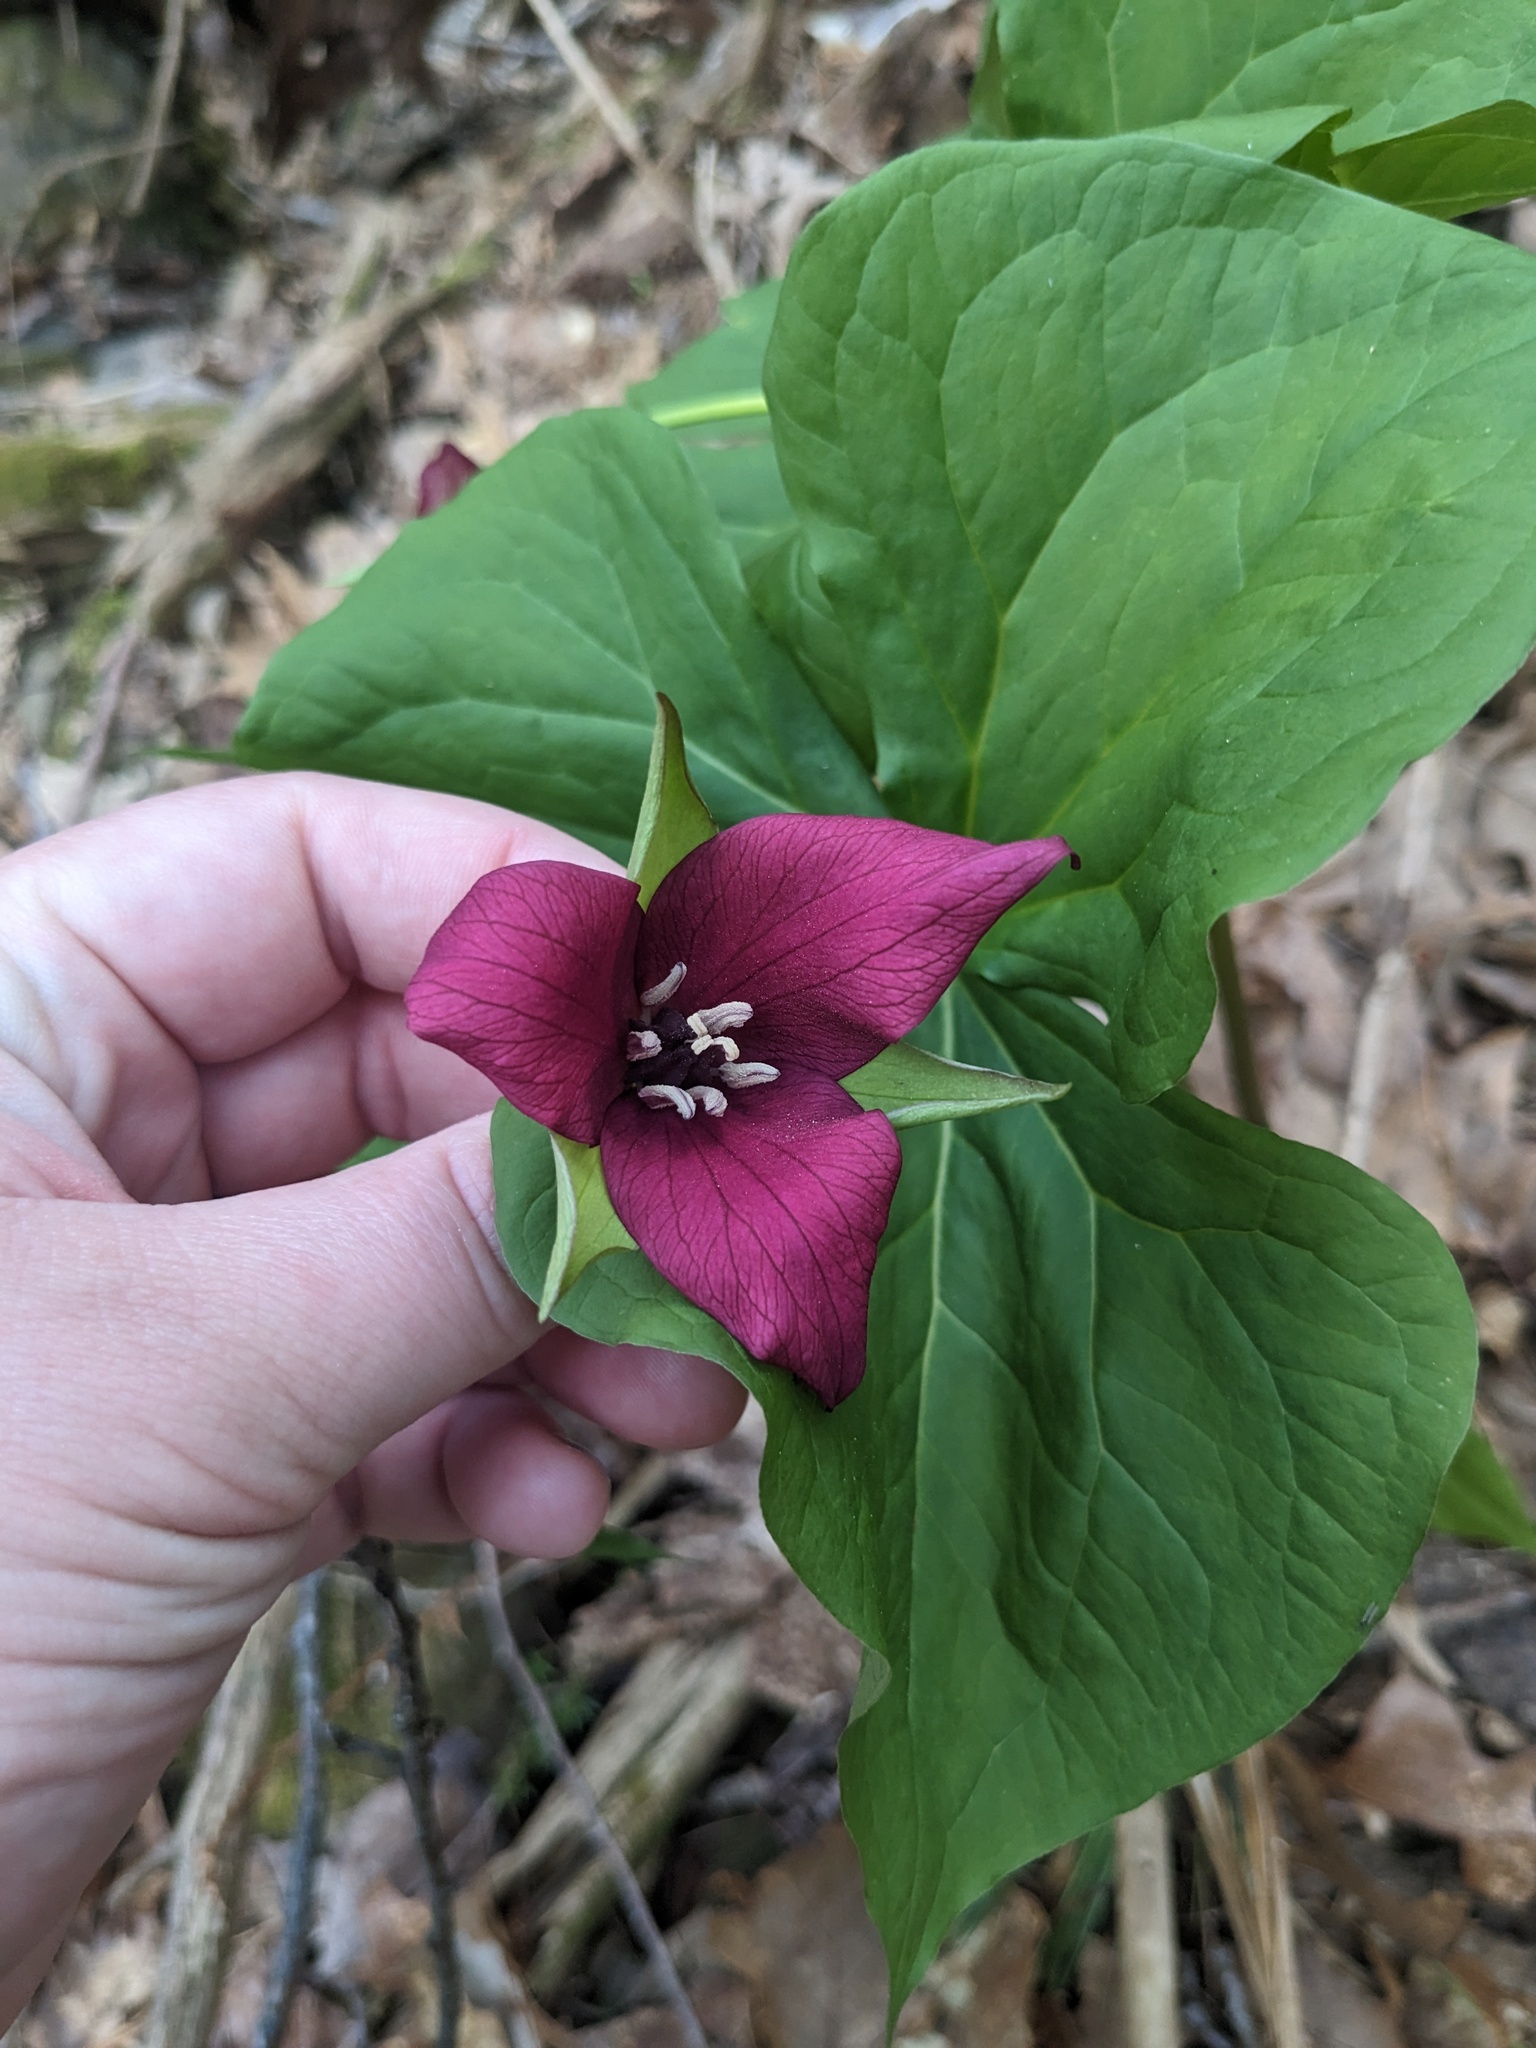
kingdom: Plantae
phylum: Tracheophyta
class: Liliopsida
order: Liliales
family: Melanthiaceae
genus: Trillium
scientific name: Trillium erectum
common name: Purple trillium
